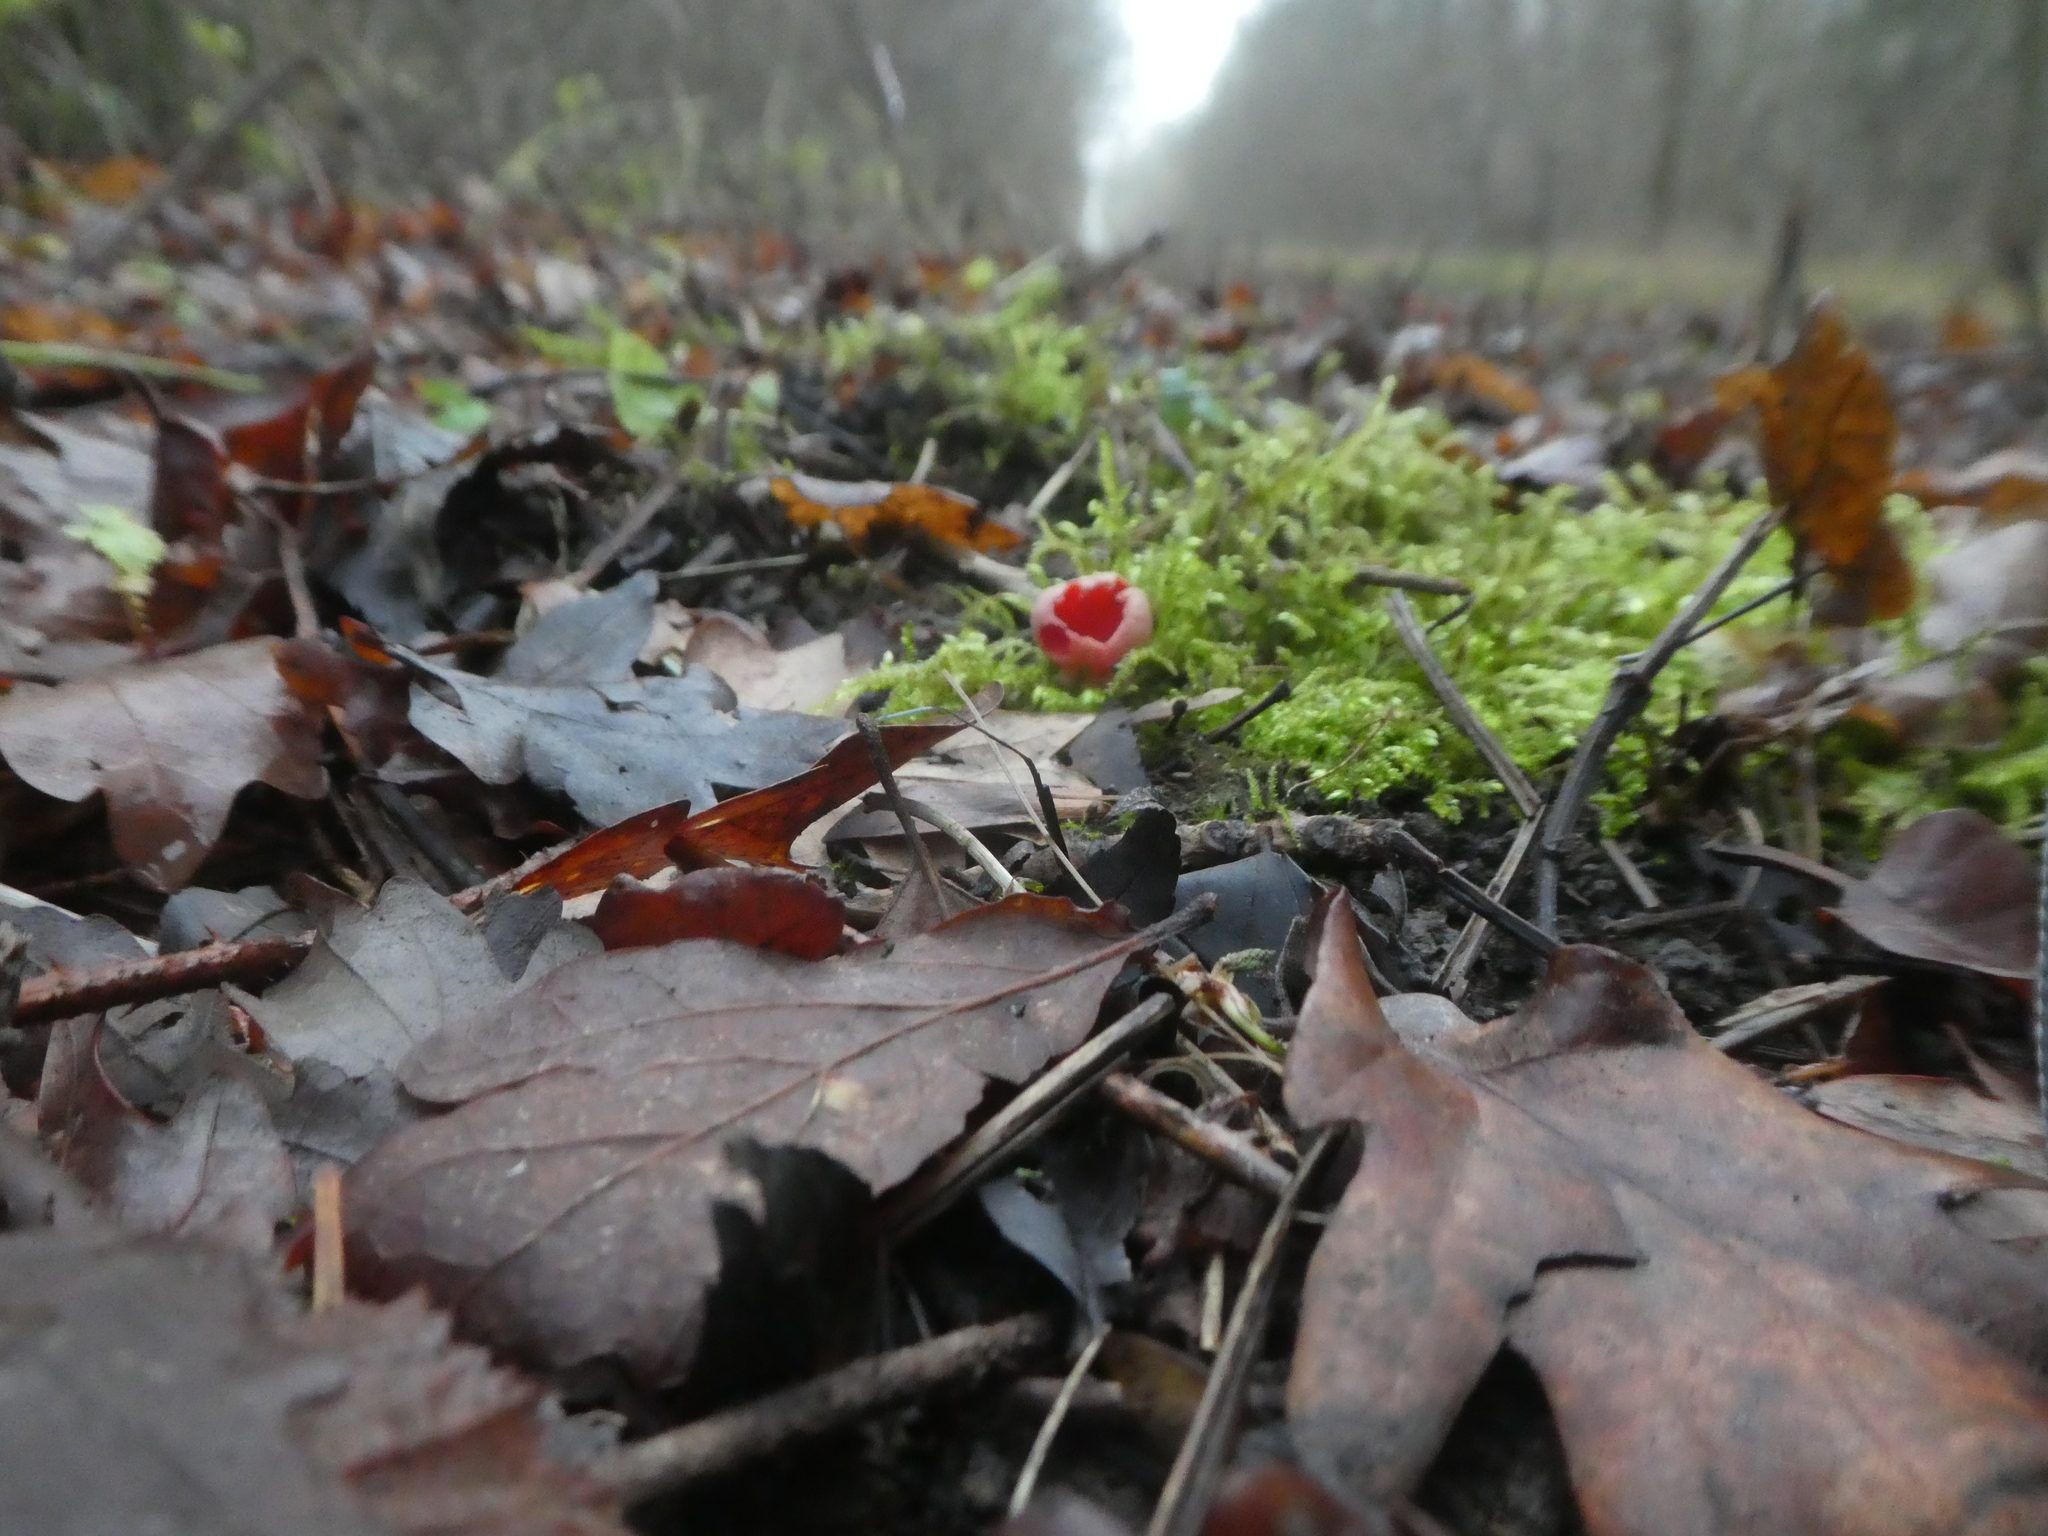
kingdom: Fungi
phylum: Ascomycota
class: Pezizomycetes
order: Pezizales
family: Sarcoscyphaceae
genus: Sarcoscypha
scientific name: Sarcoscypha
